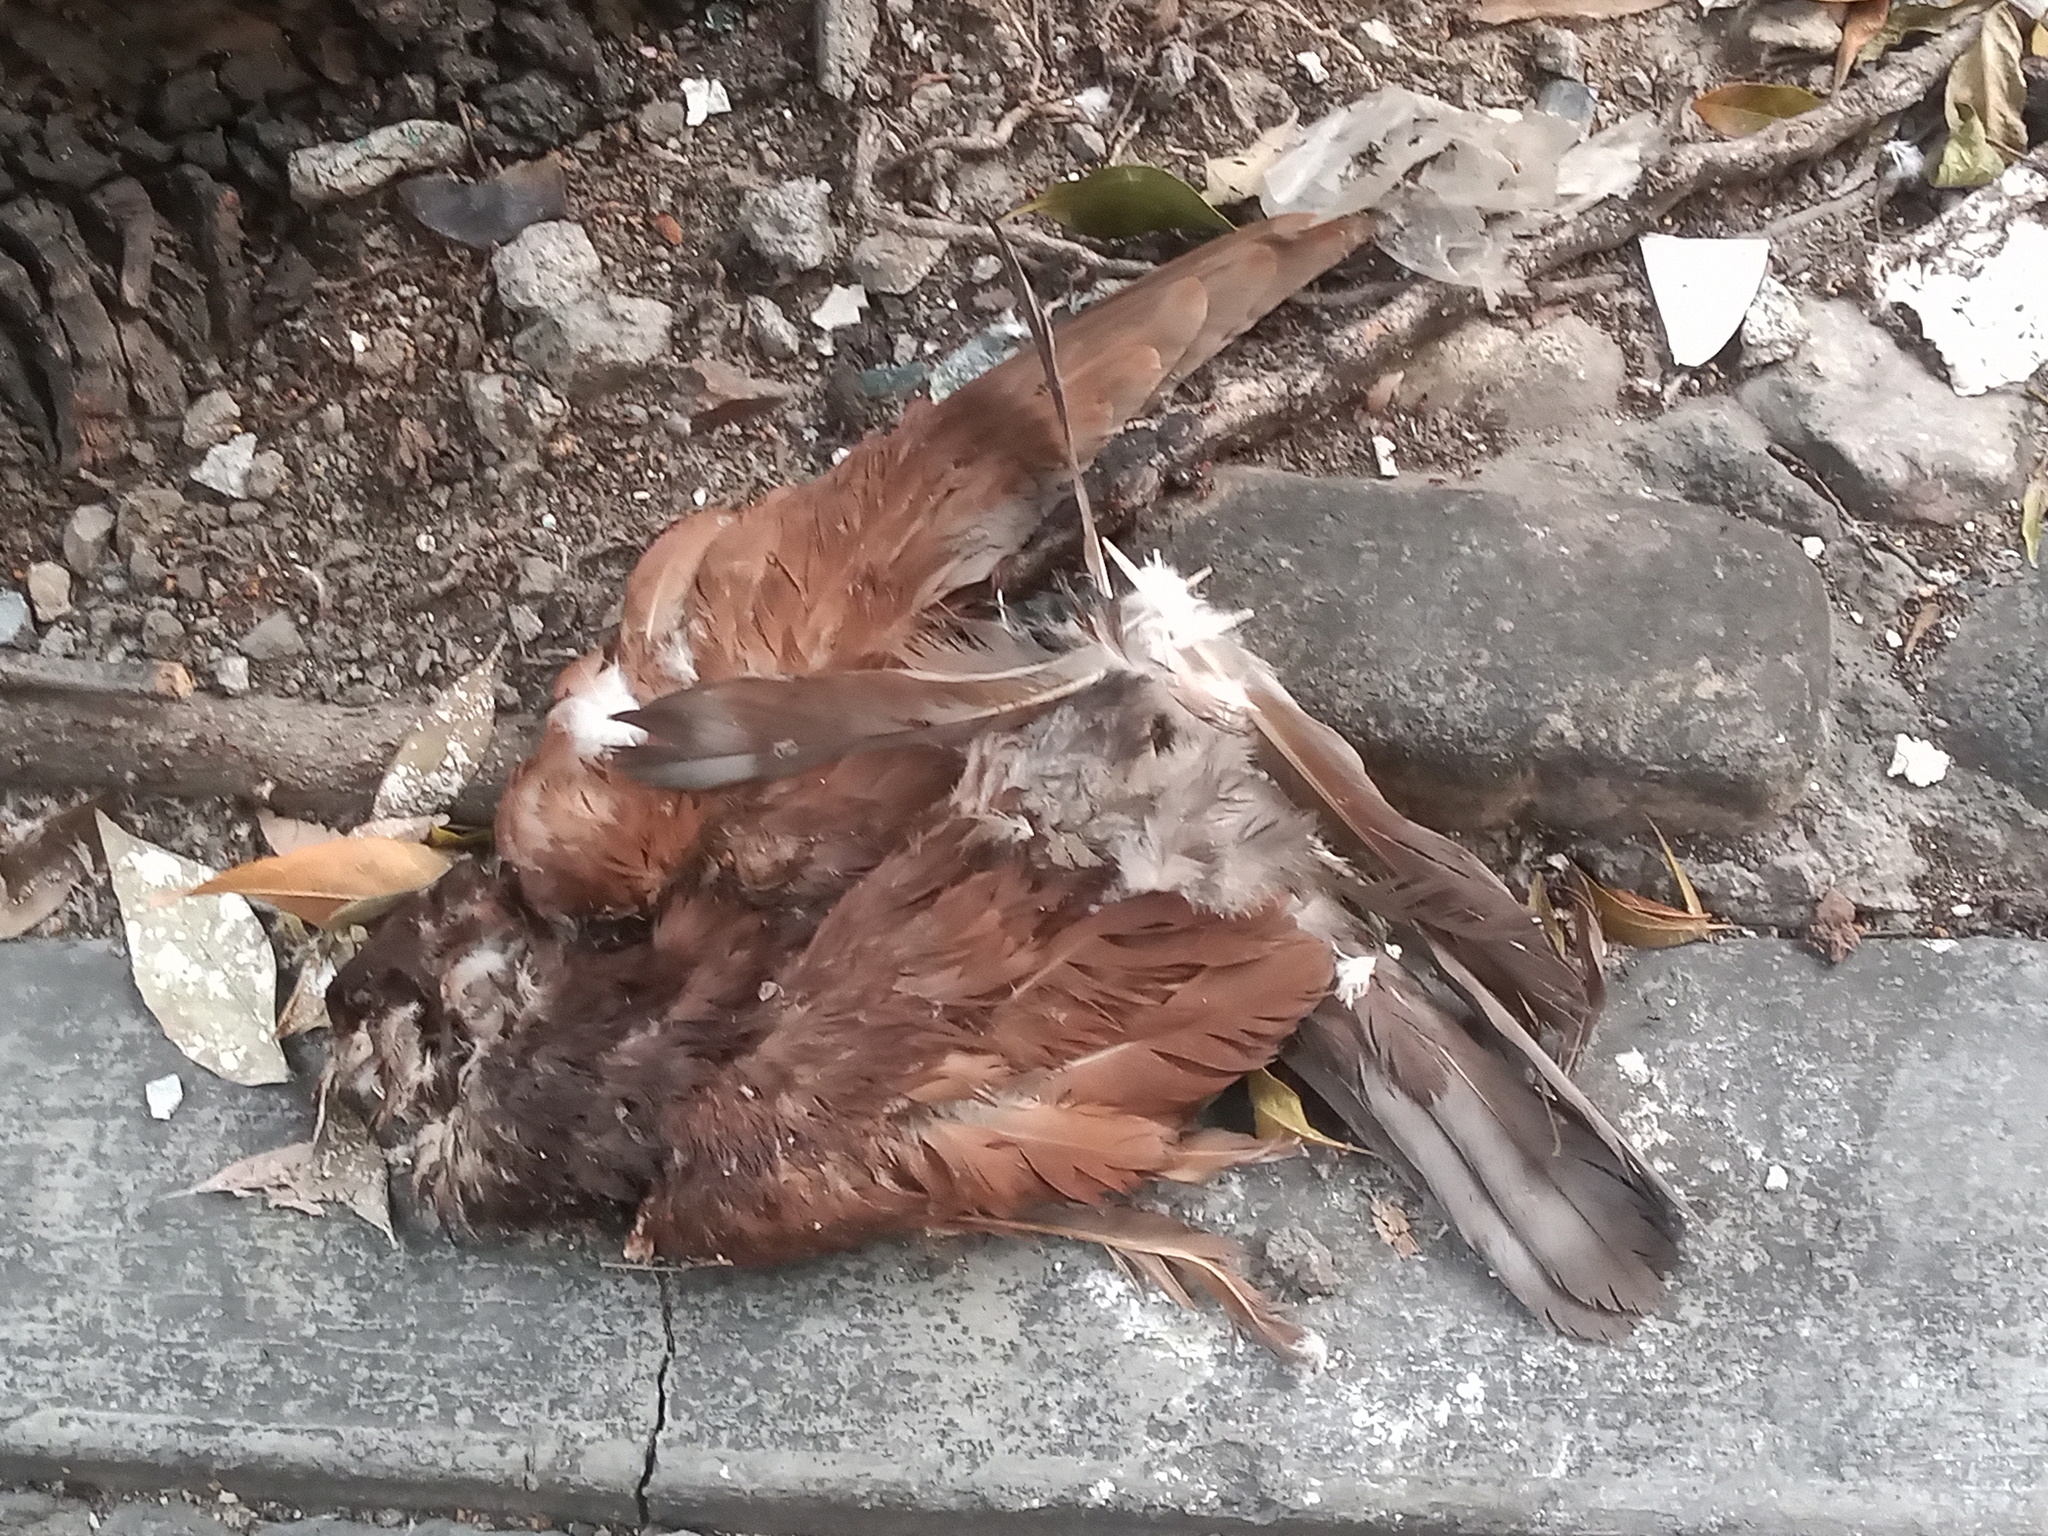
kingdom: Animalia
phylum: Chordata
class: Aves
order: Columbiformes
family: Columbidae
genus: Columba
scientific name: Columba livia
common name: Rock pigeon
